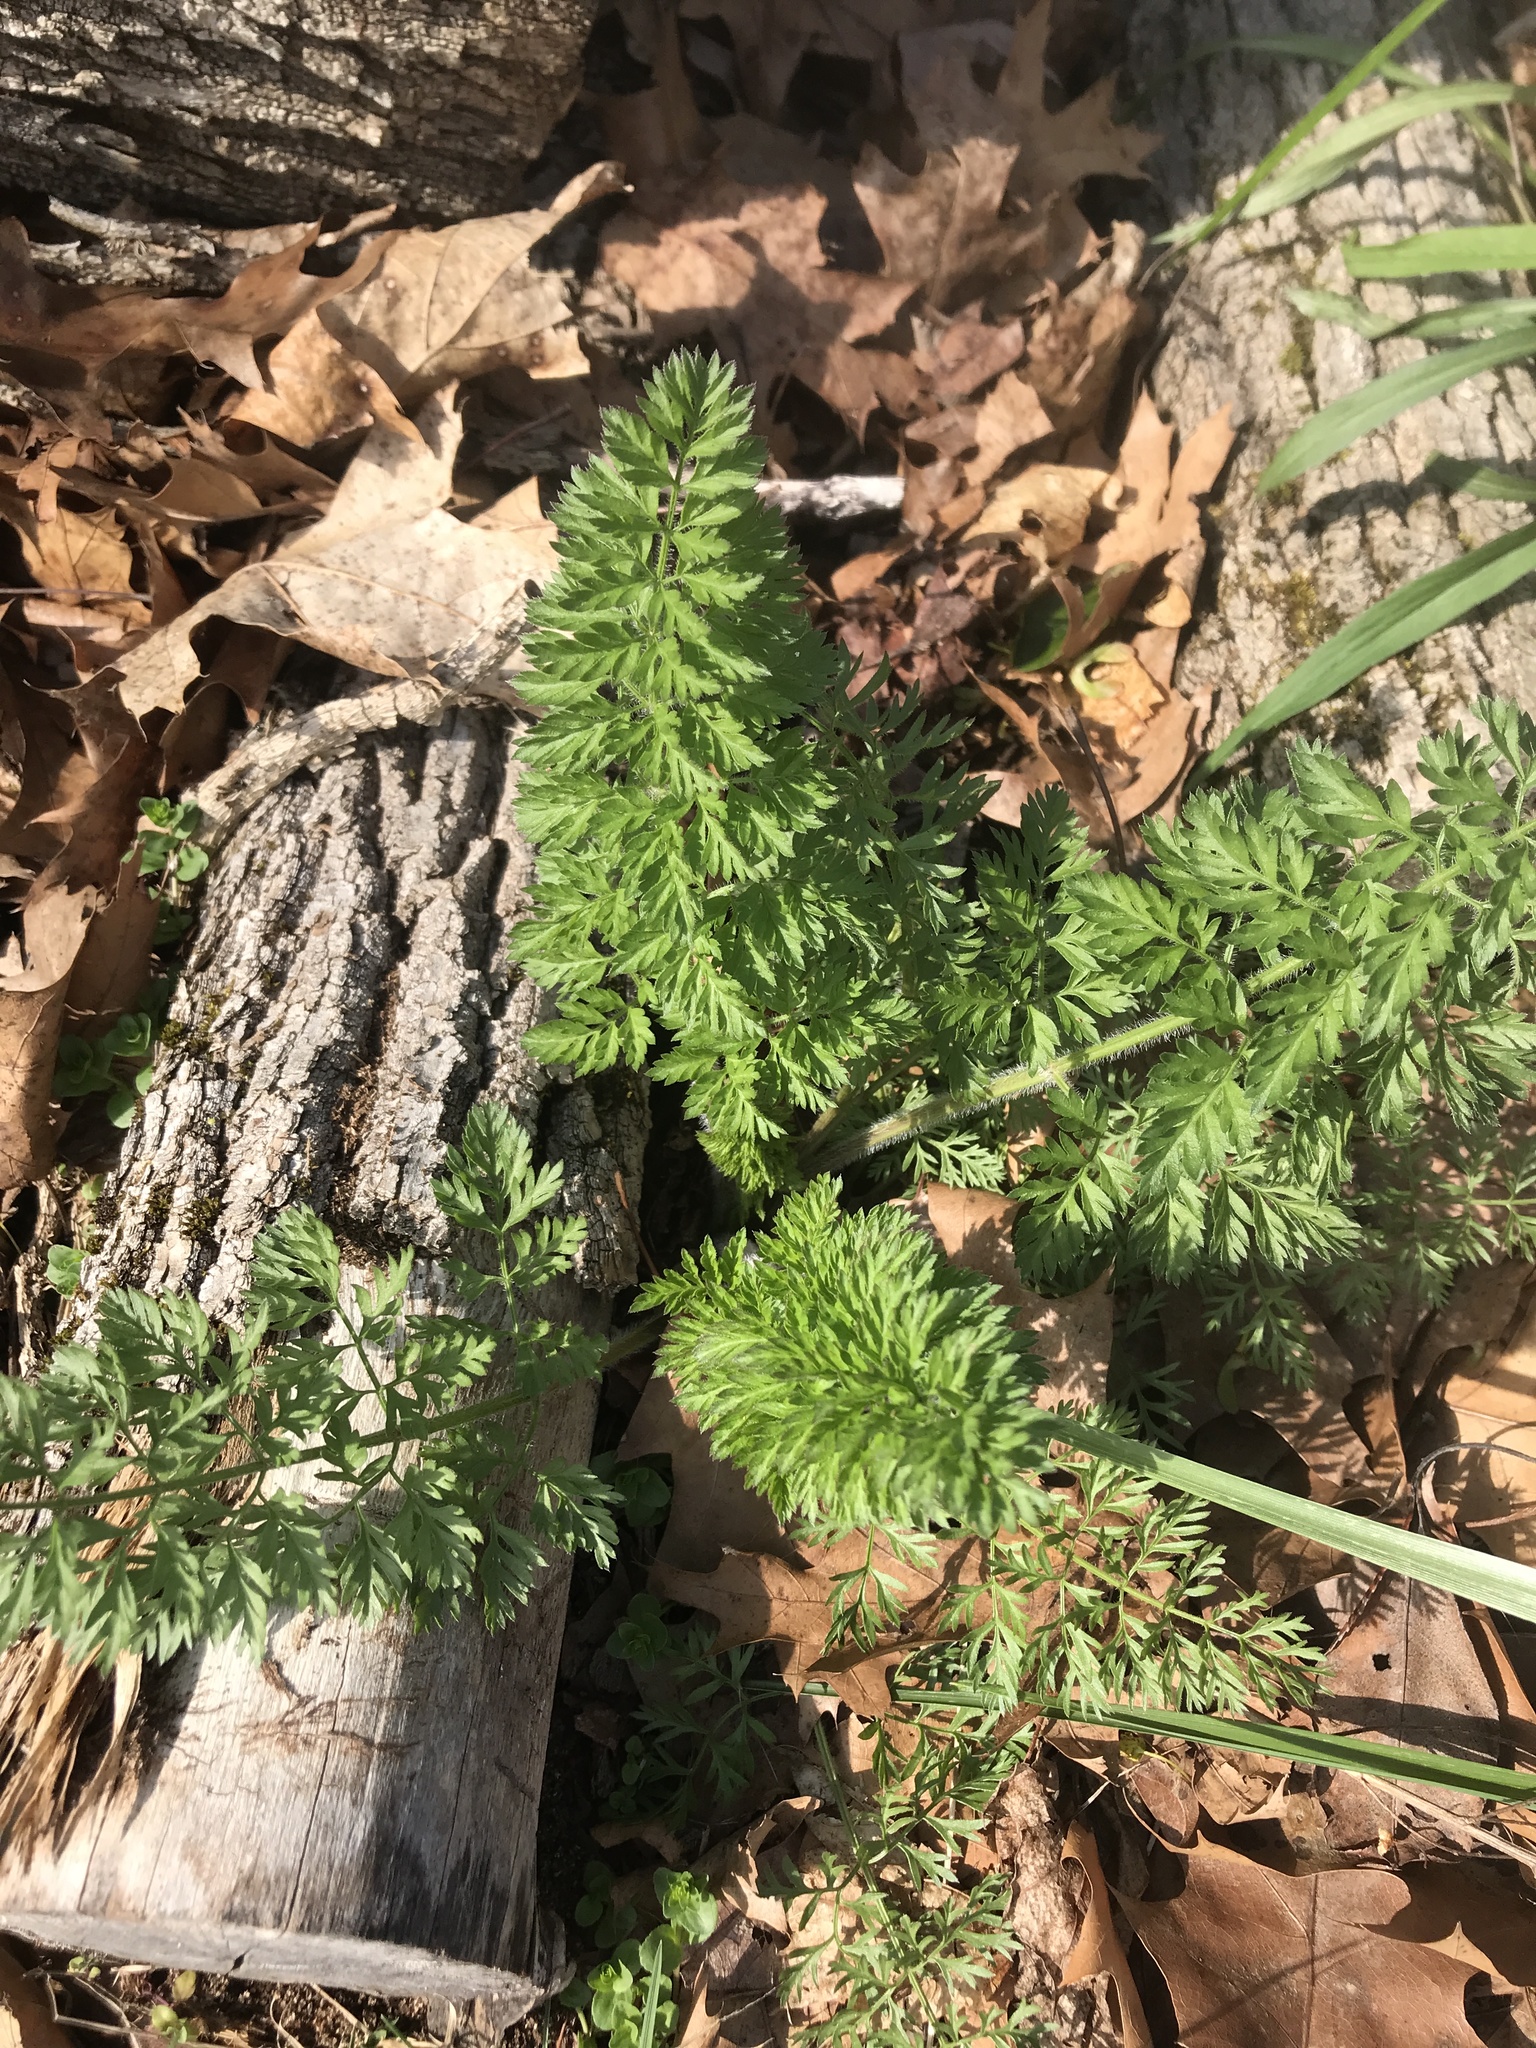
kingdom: Plantae
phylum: Tracheophyta
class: Magnoliopsida
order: Apiales
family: Apiaceae
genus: Daucus
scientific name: Daucus carota
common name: Wild carrot
